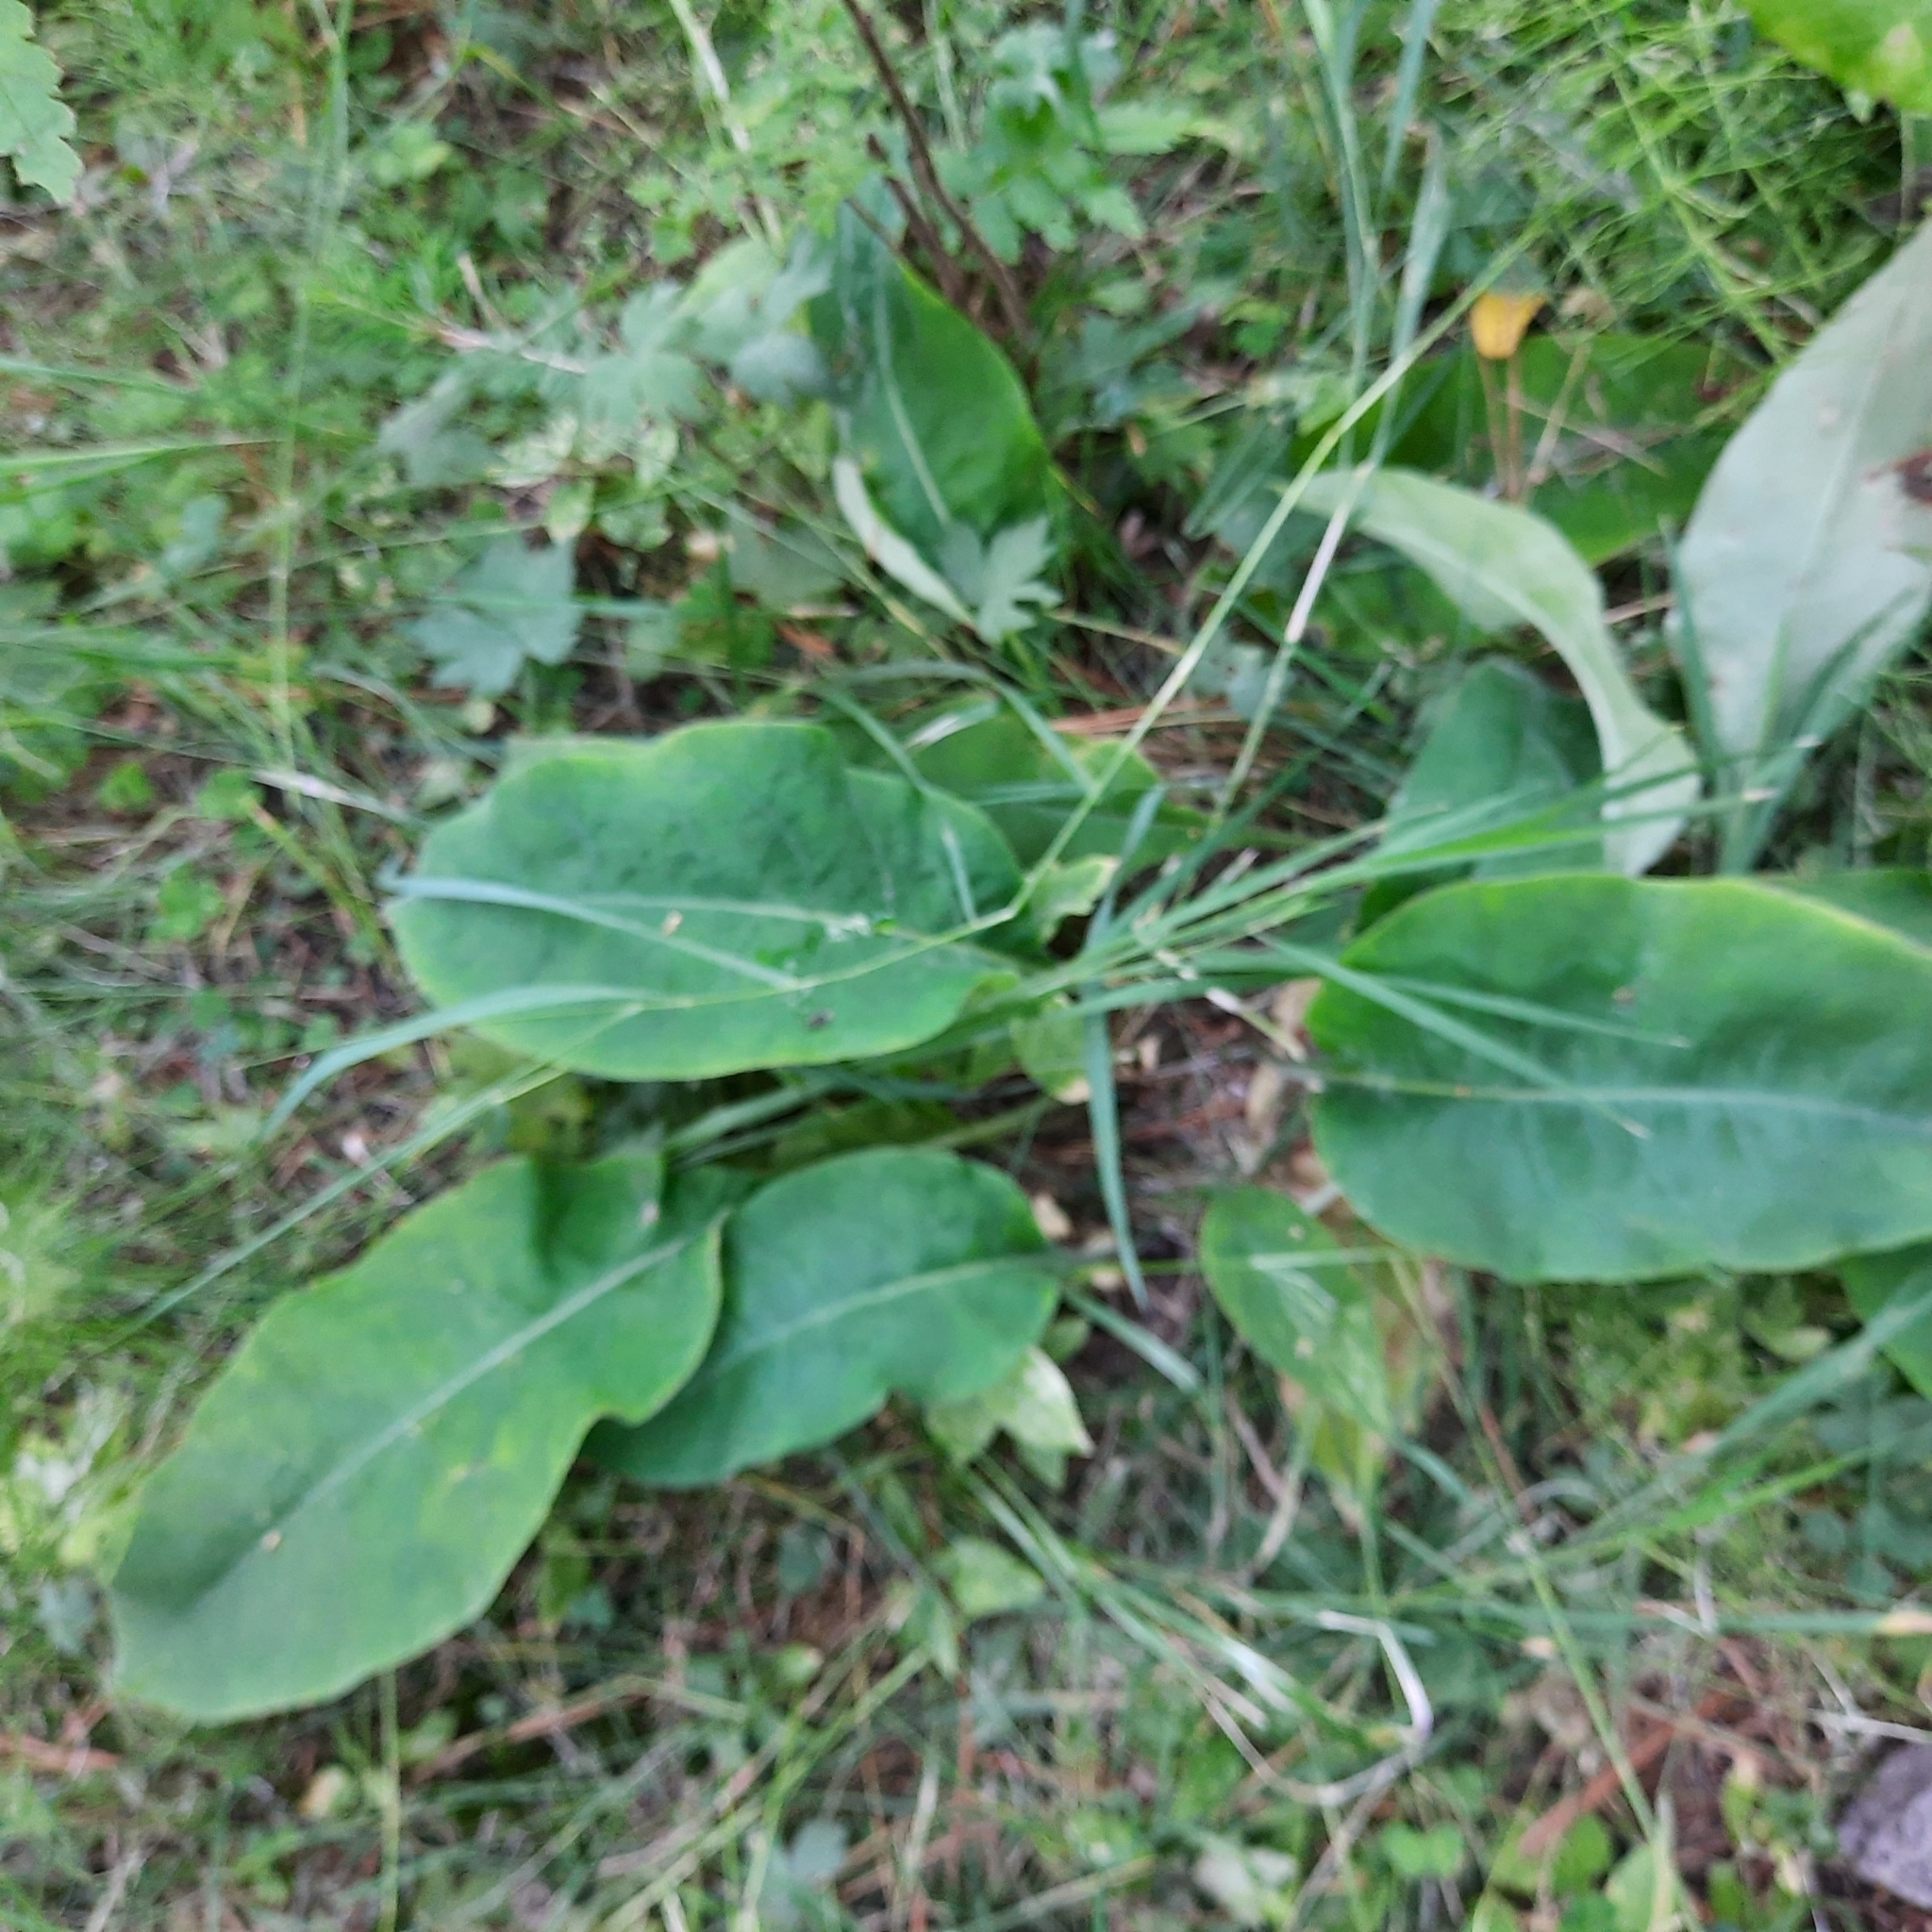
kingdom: Plantae
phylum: Tracheophyta
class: Magnoliopsida
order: Boraginales
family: Boraginaceae
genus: Pulmonaria
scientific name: Pulmonaria mollis
